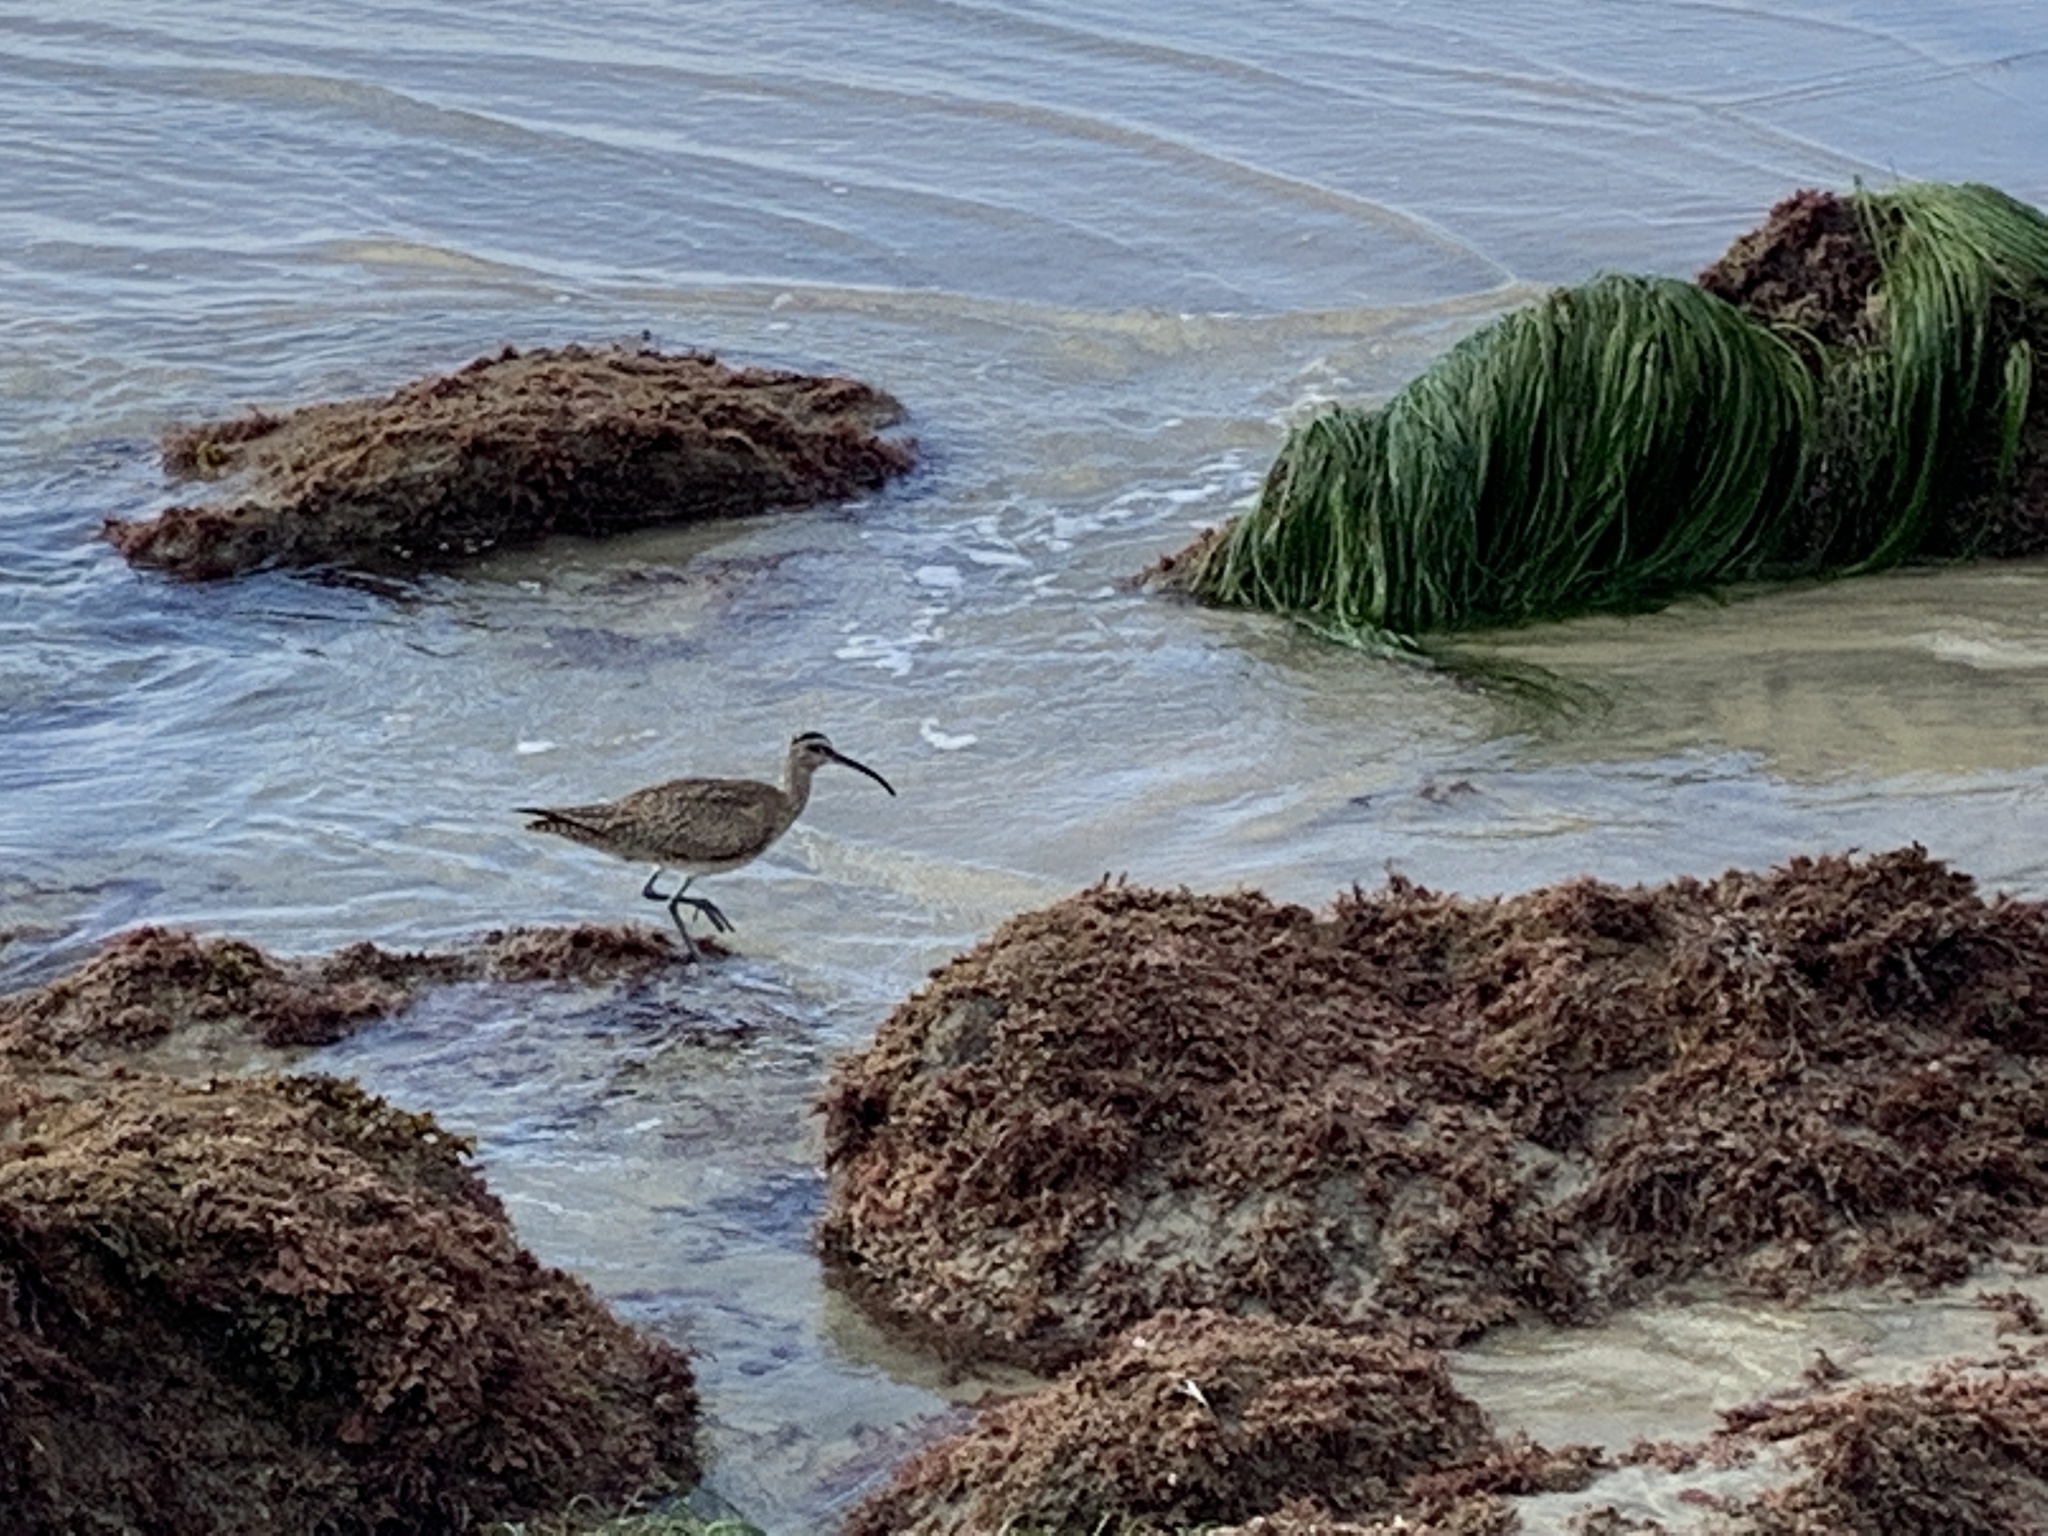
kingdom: Animalia
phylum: Chordata
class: Aves
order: Charadriiformes
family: Scolopacidae
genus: Numenius
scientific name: Numenius phaeopus
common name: Whimbrel
